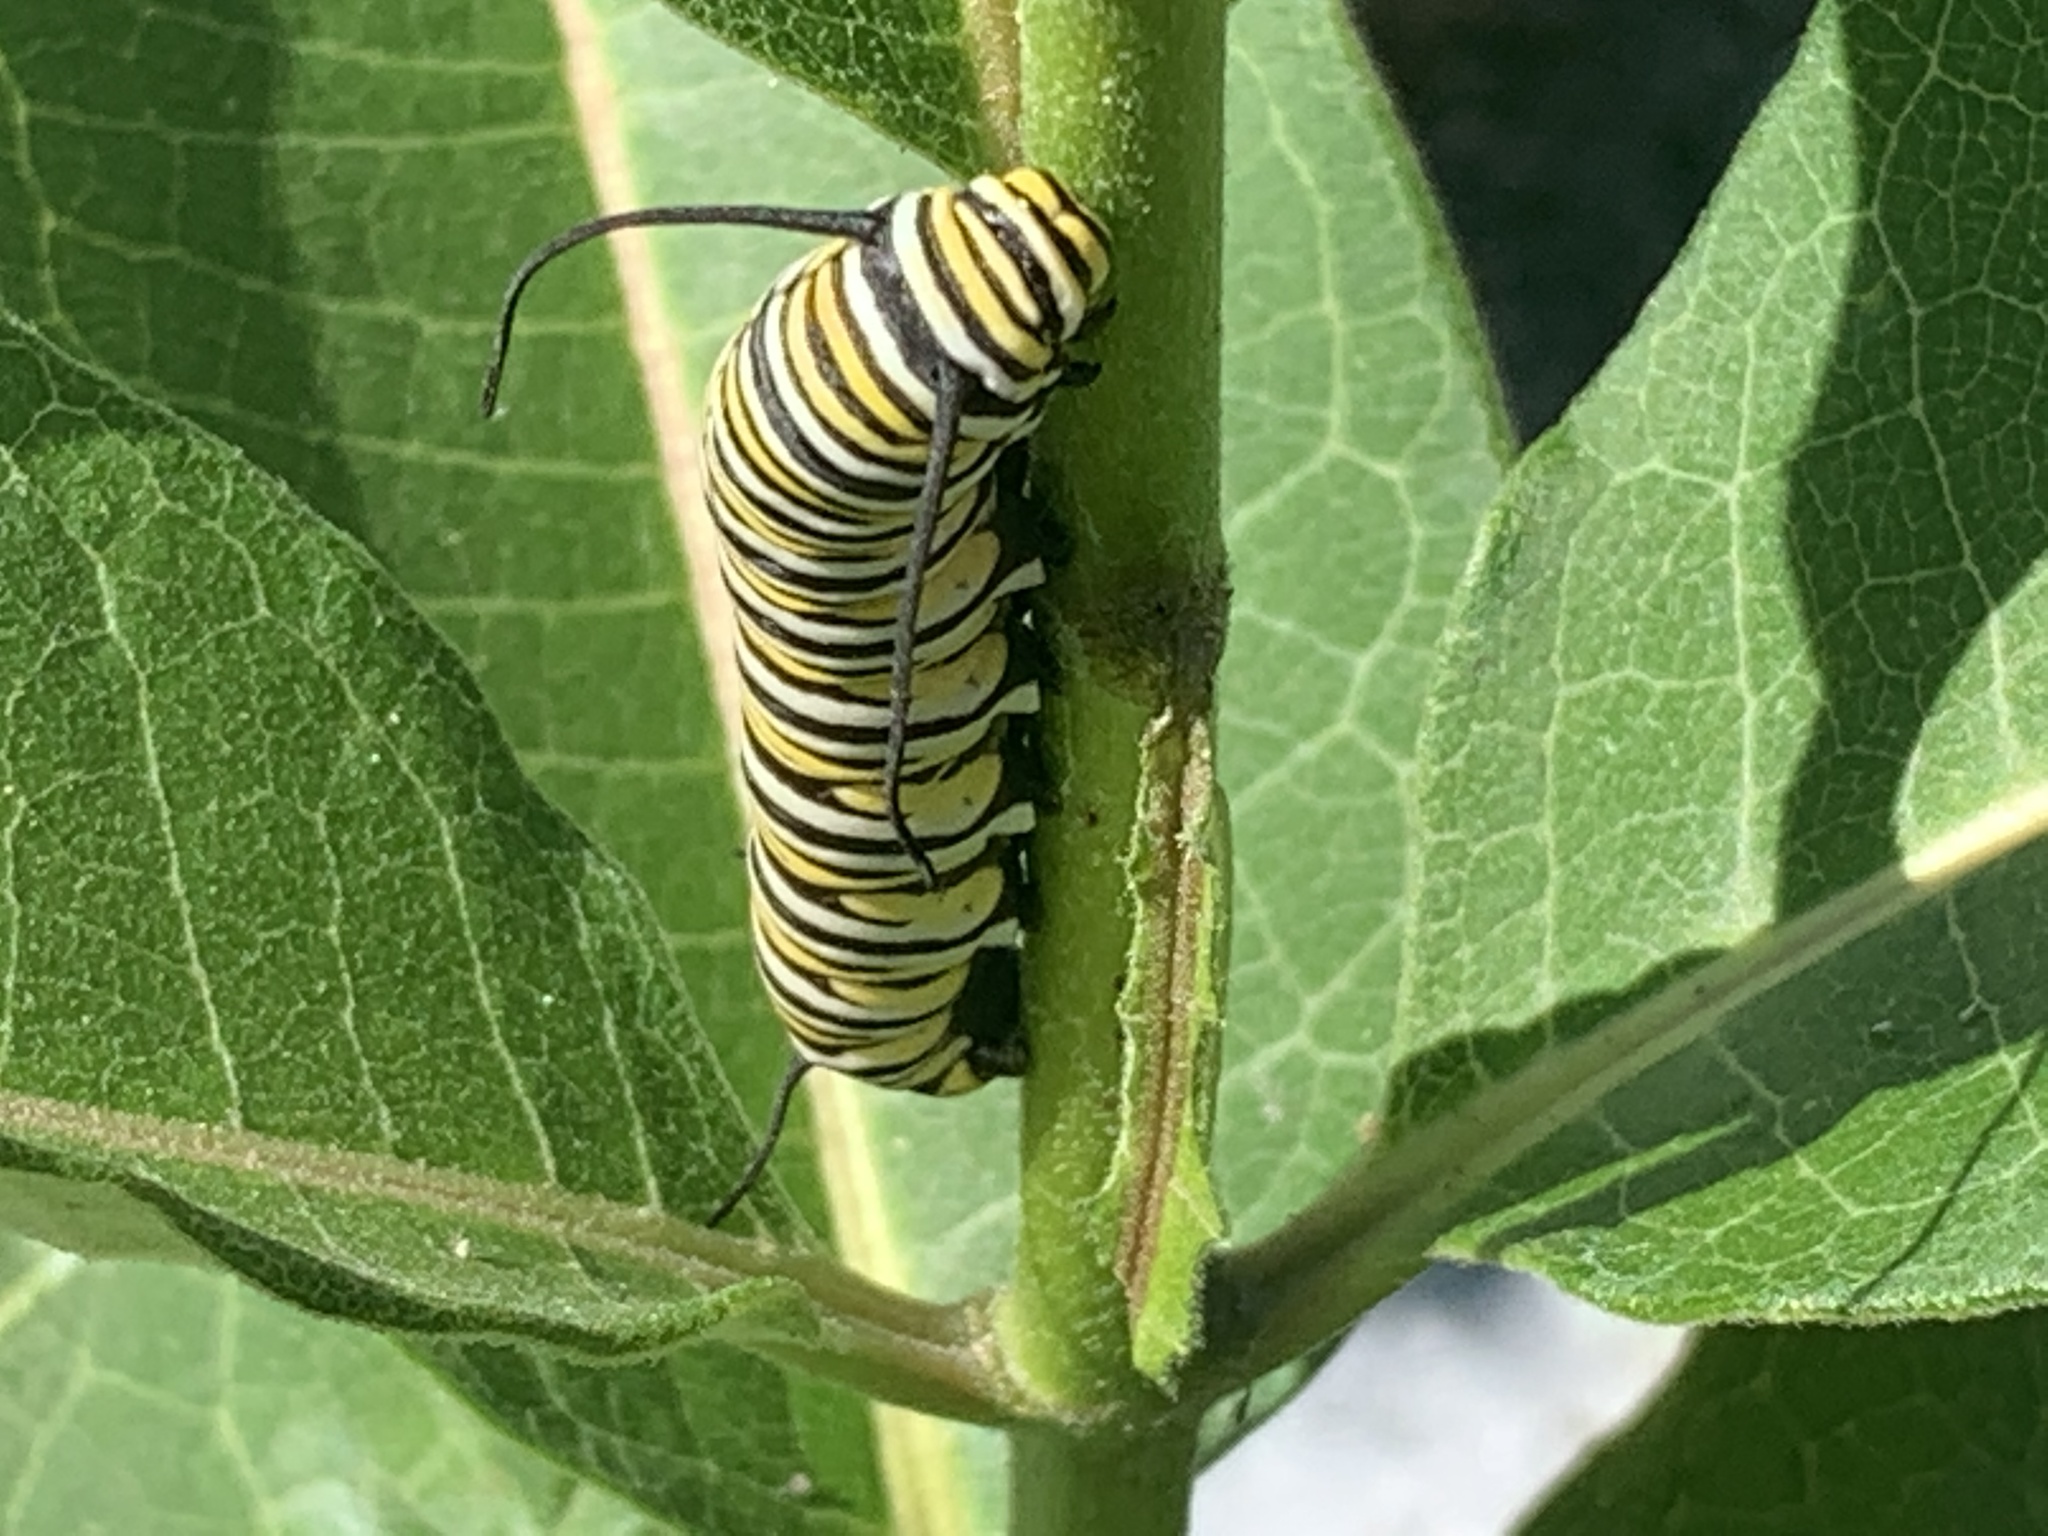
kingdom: Animalia
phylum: Arthropoda
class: Insecta
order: Lepidoptera
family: Nymphalidae
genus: Danaus
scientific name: Danaus plexippus
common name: Monarch
